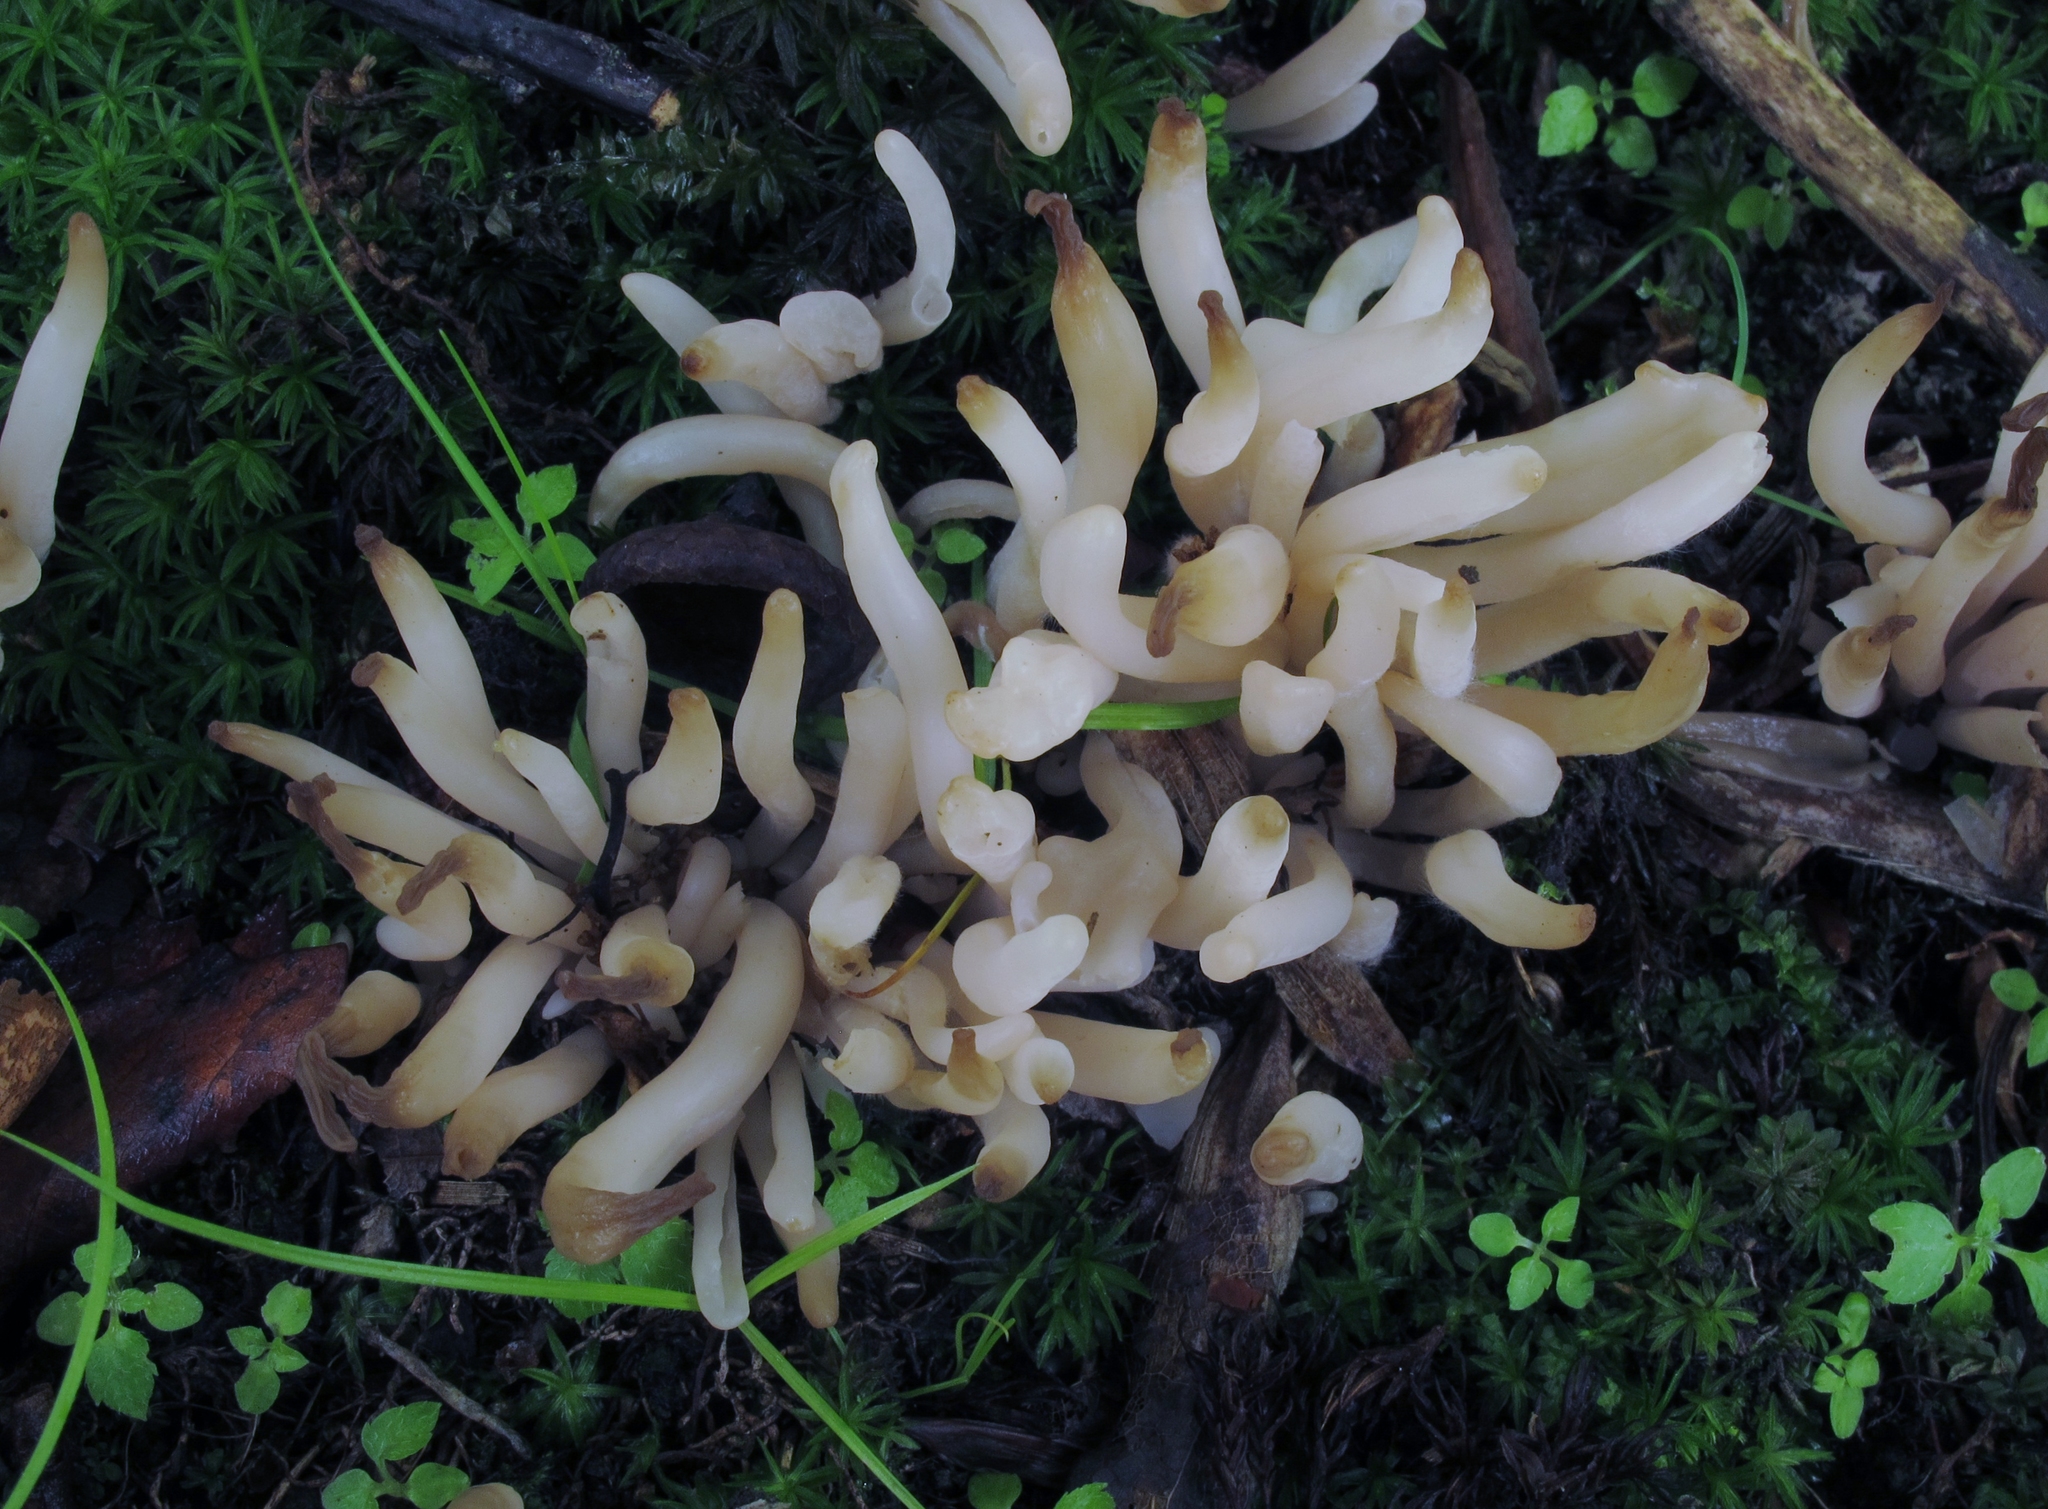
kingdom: Fungi
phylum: Basidiomycota
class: Agaricomycetes
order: Agaricales
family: Clavariaceae
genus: Clavaria
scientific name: Clavaria rubicundula
